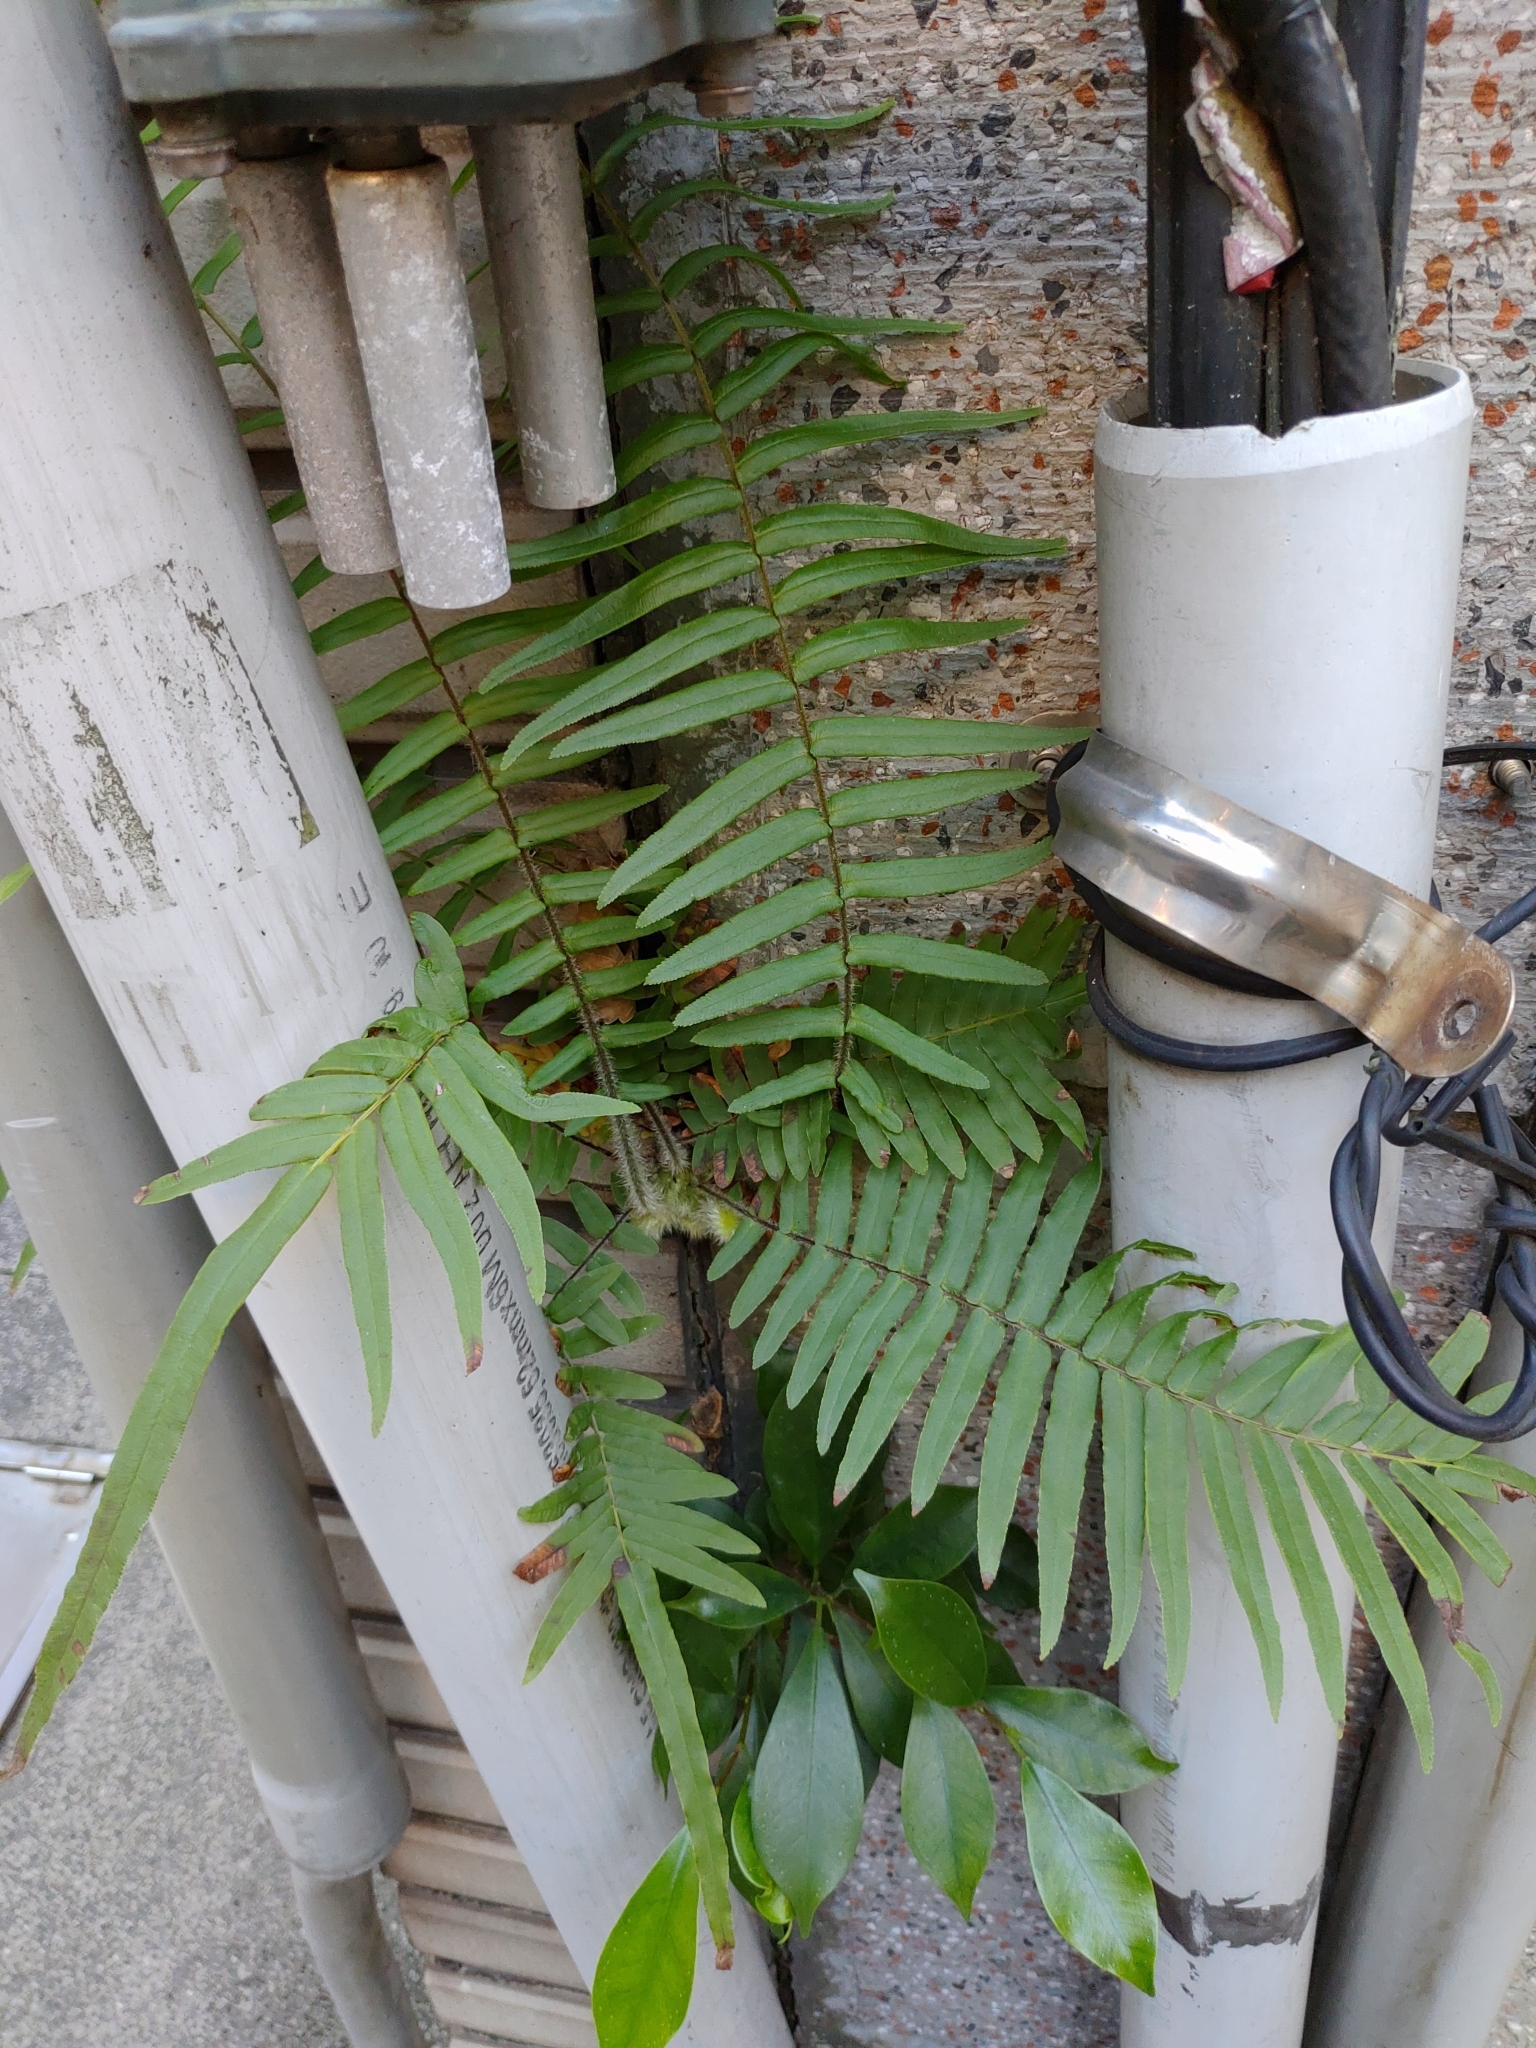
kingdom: Plantae
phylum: Tracheophyta
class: Polypodiopsida
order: Polypodiales
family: Pteridaceae
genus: Pteris
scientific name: Pteris vittata
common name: Ladder brake
